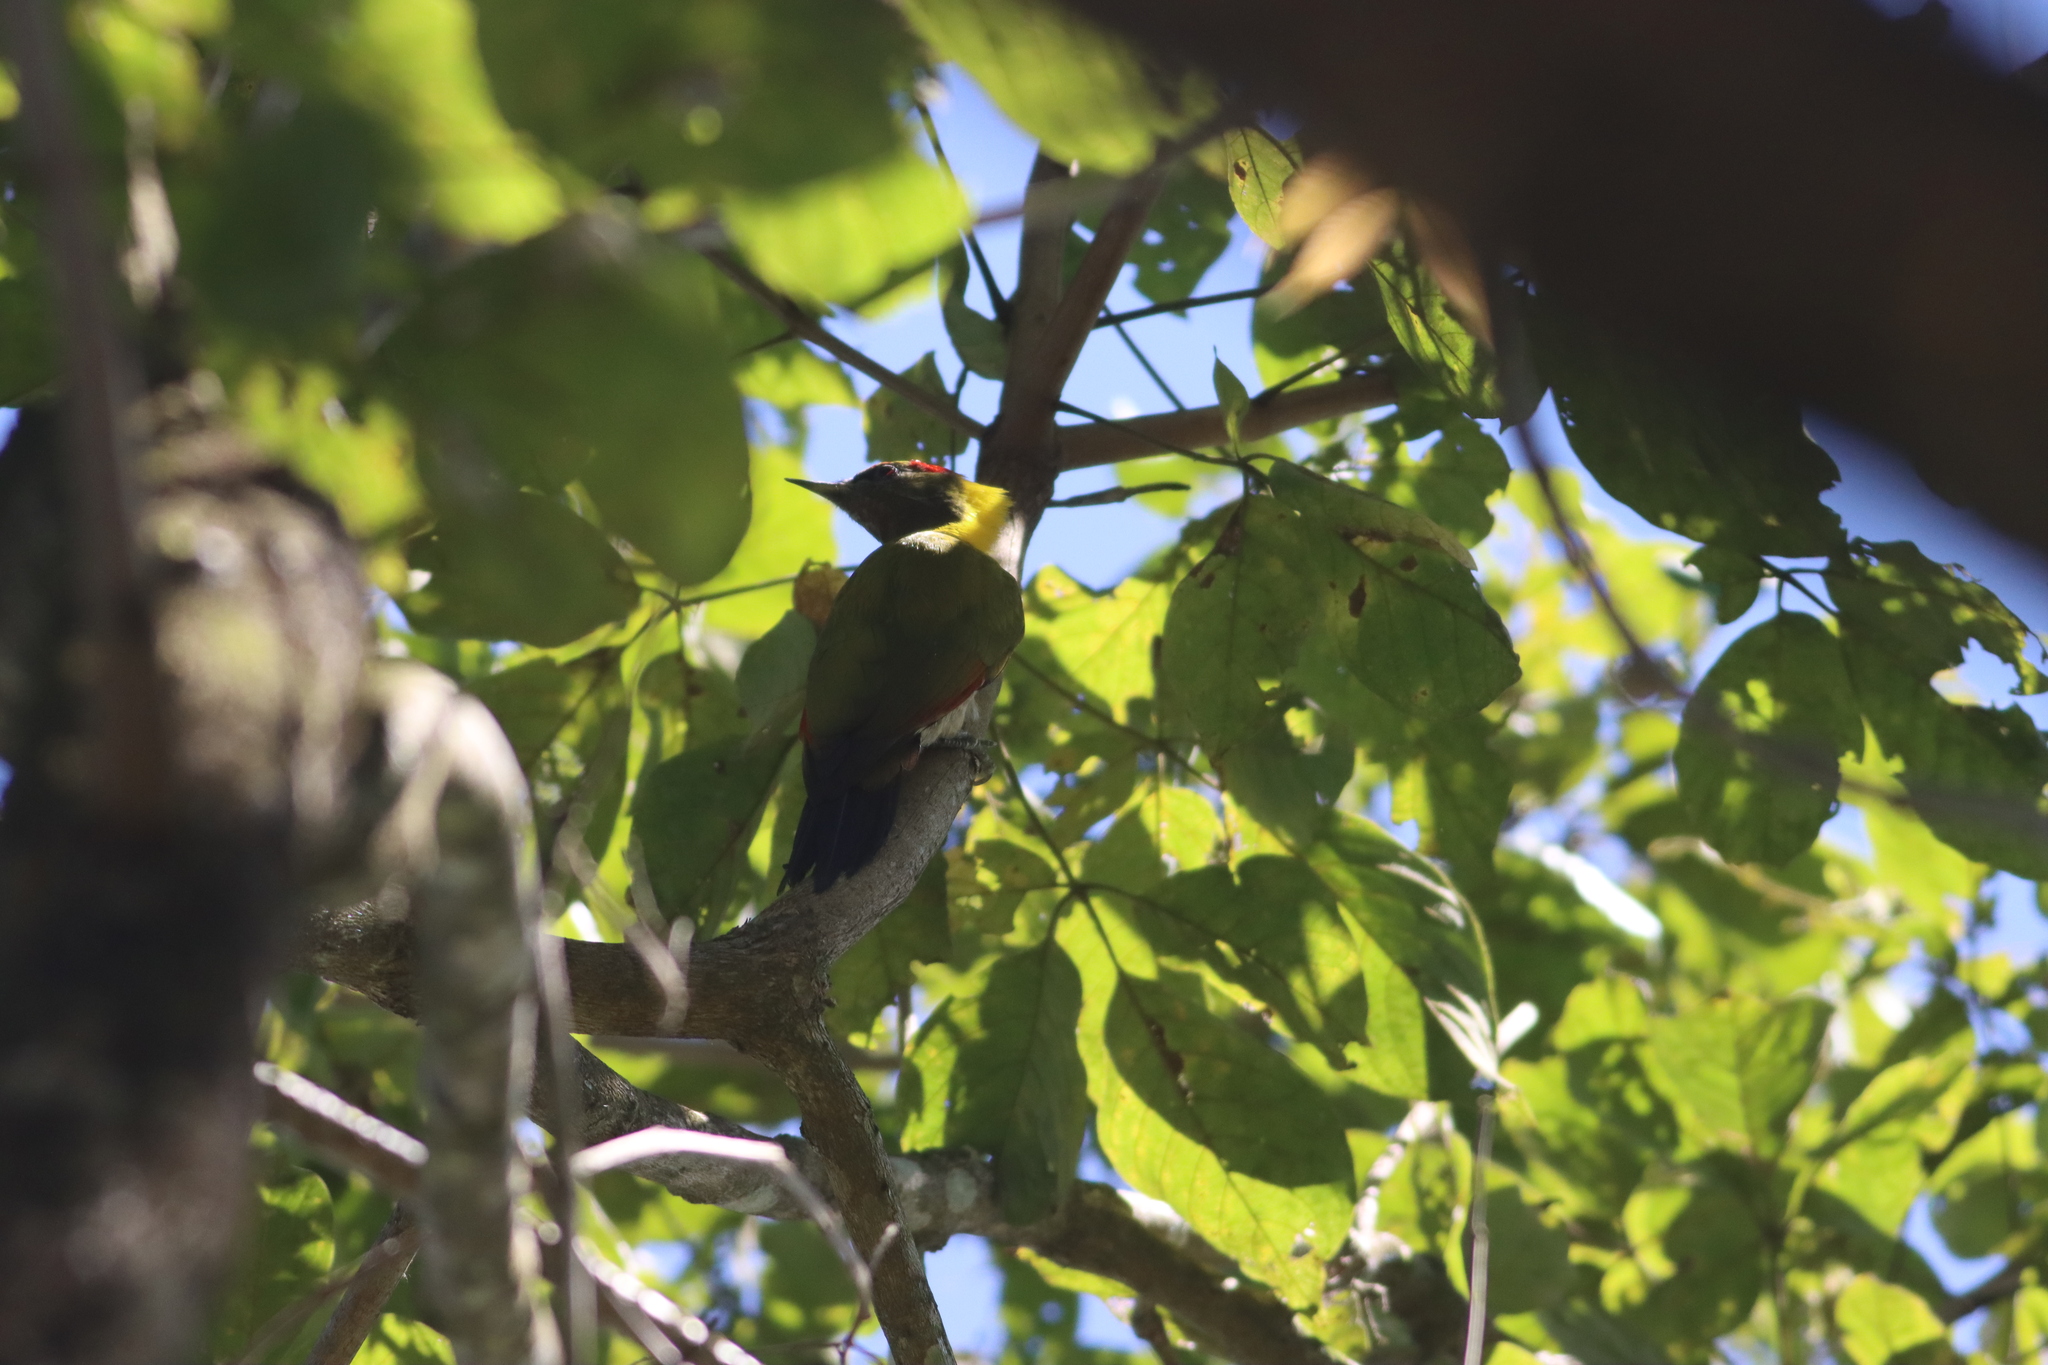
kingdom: Animalia
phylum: Chordata
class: Aves
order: Piciformes
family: Picidae
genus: Picus
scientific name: Picus chlorolophus
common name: Lesser yellownape
